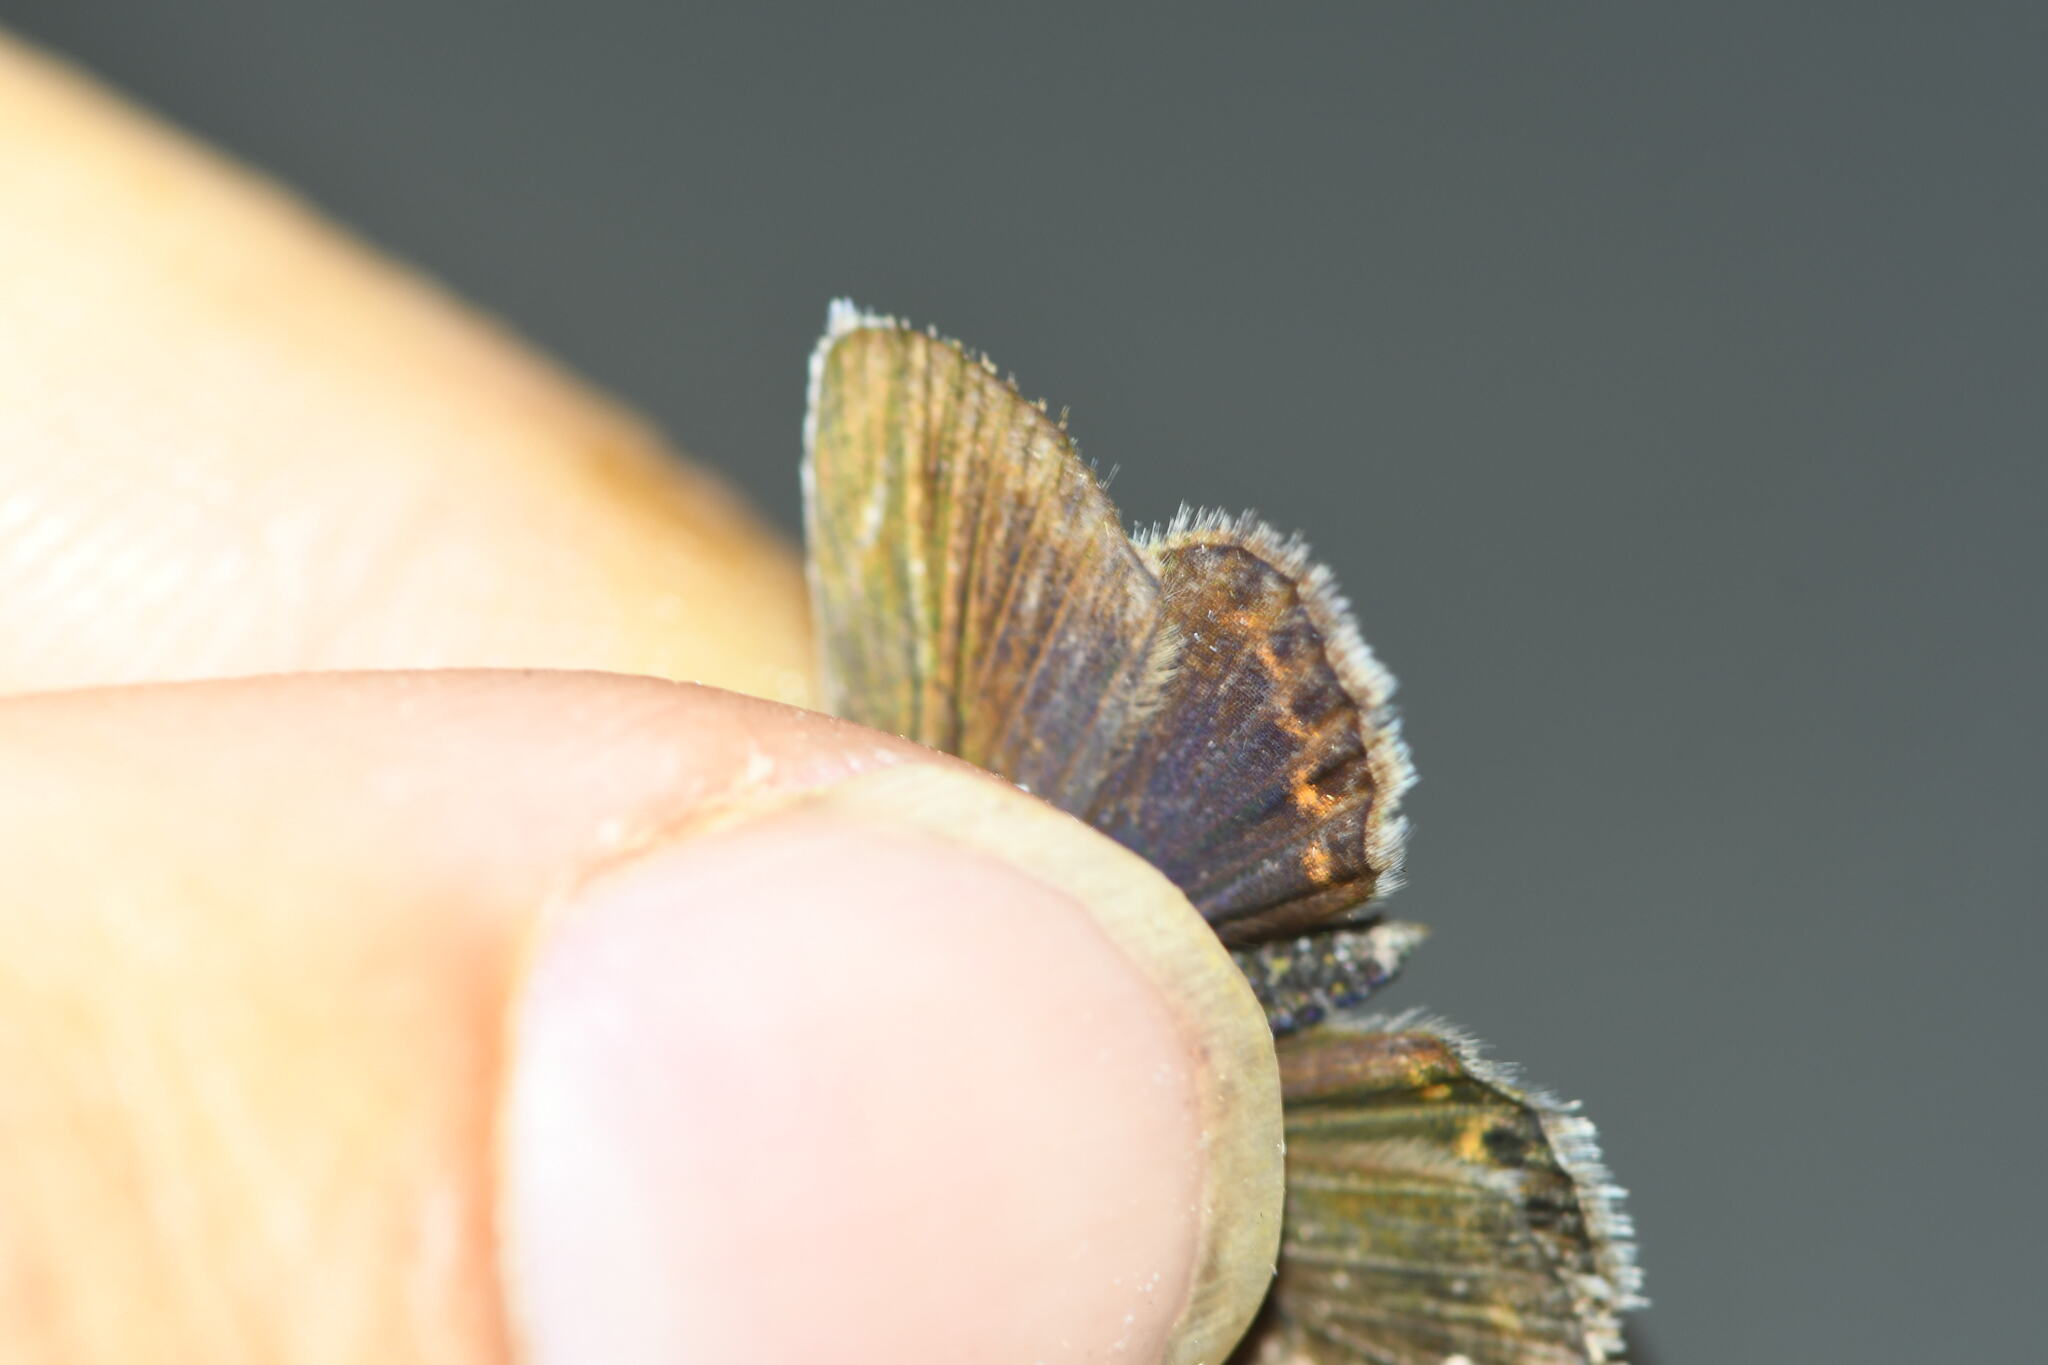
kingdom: Animalia
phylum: Arthropoda
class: Insecta
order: Lepidoptera
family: Lycaenidae
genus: Plebejus
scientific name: Plebejus argus
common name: Silver-studded blue
